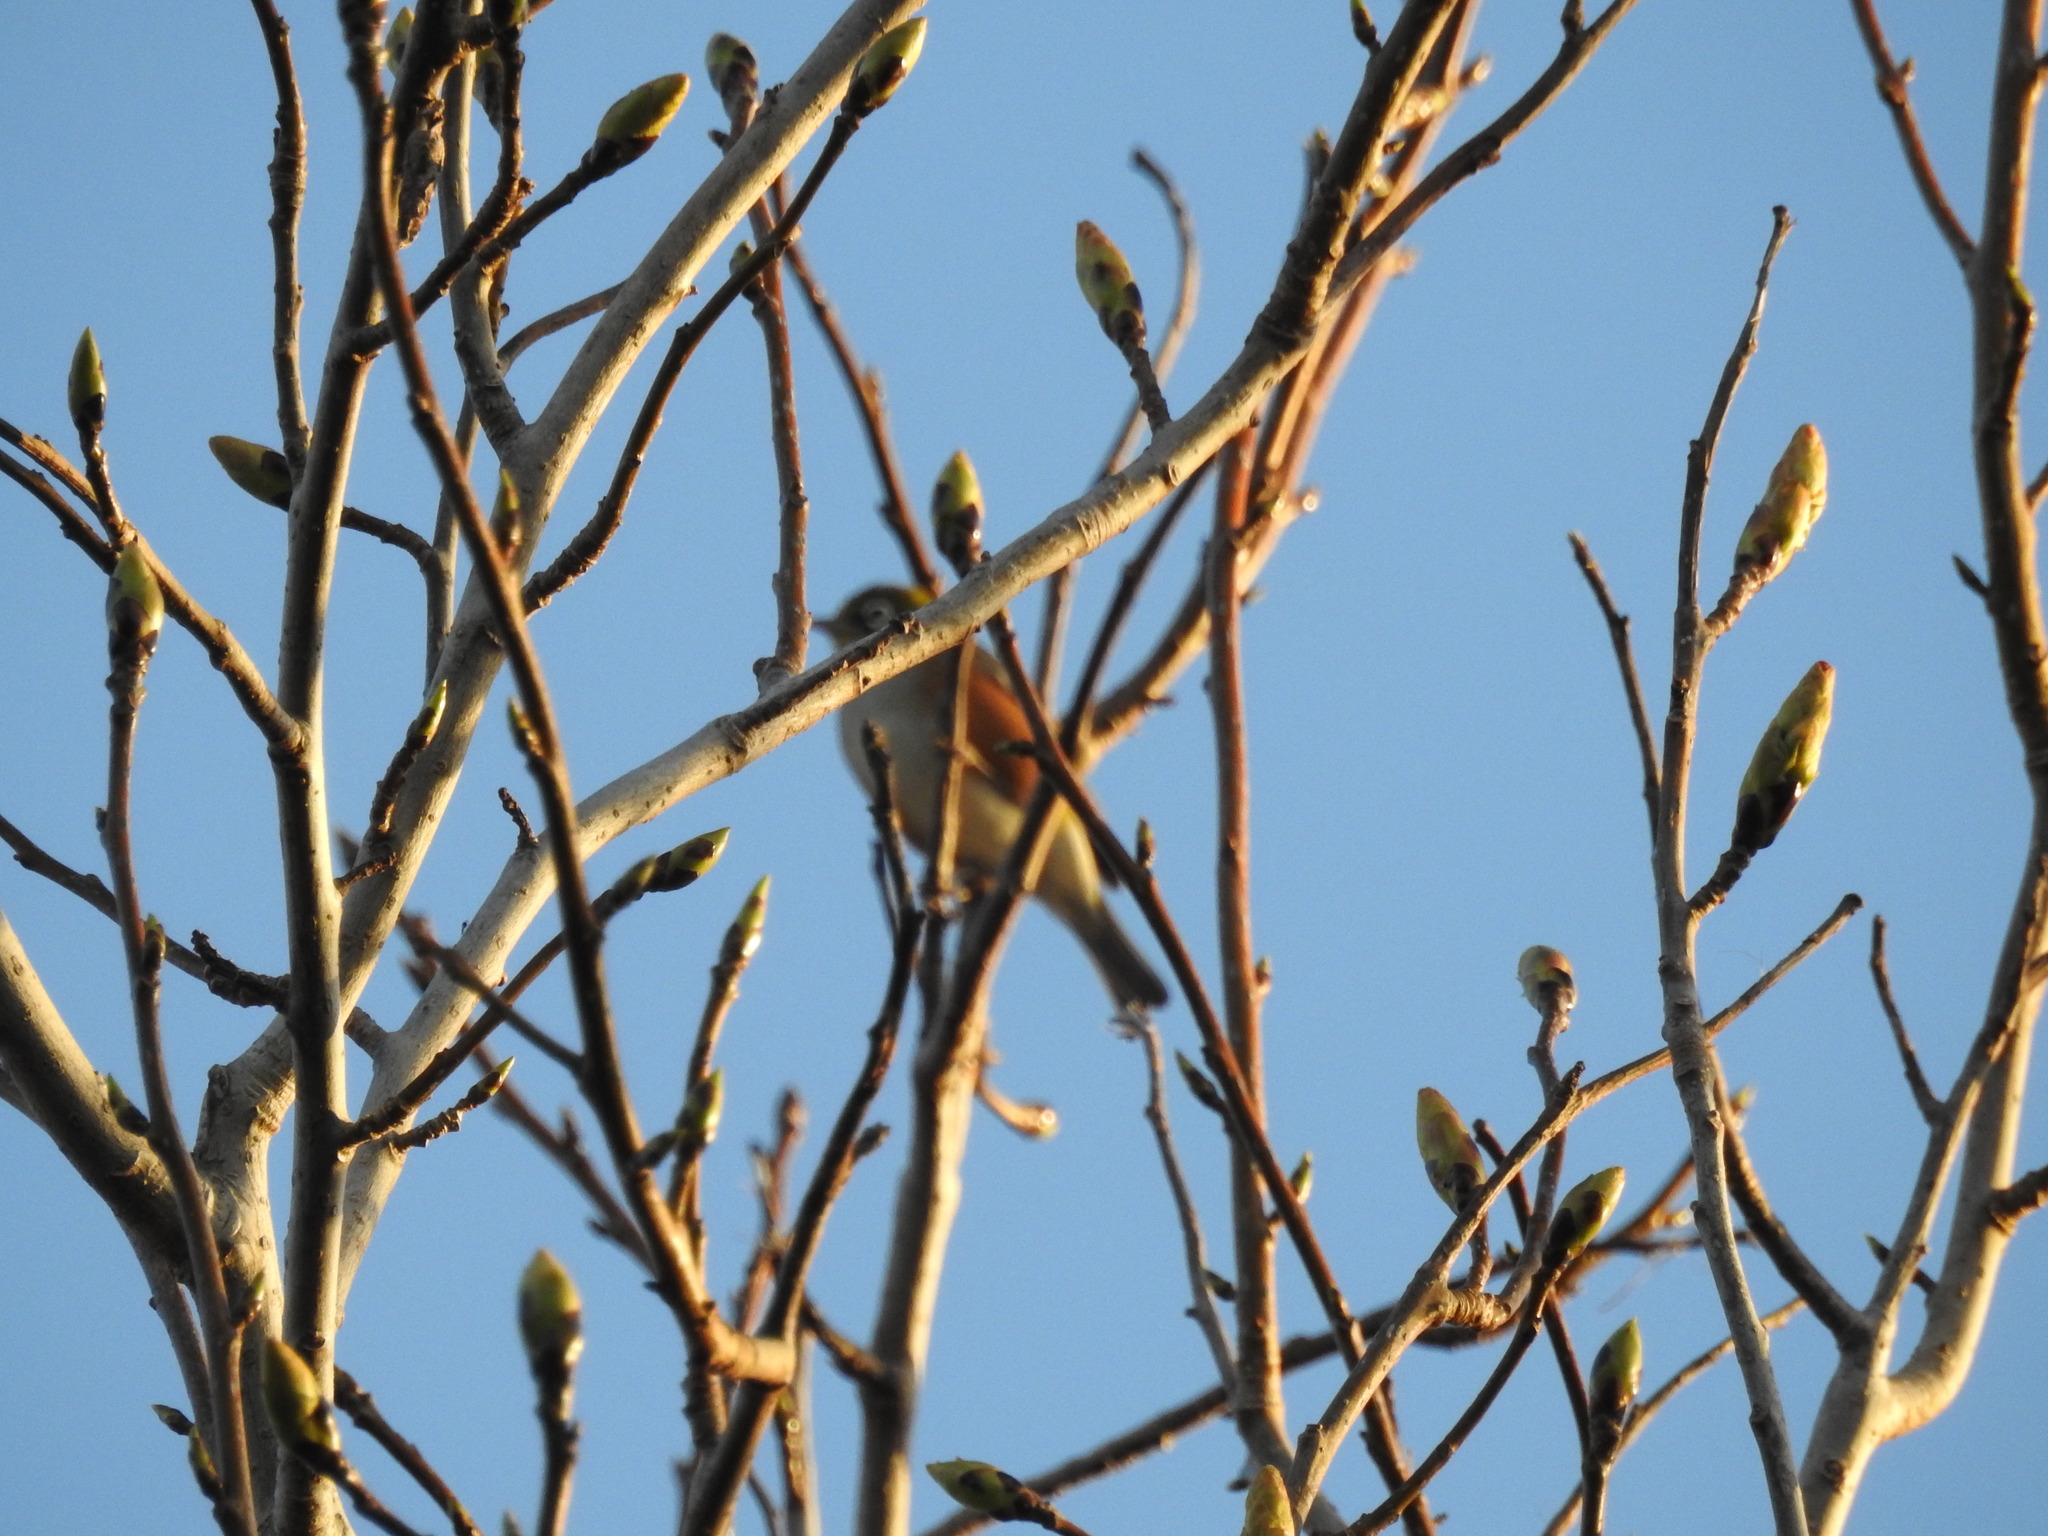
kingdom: Animalia
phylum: Chordata
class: Aves
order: Passeriformes
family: Zosteropidae
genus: Zosterops
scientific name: Zosterops lateralis
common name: Silvereye
